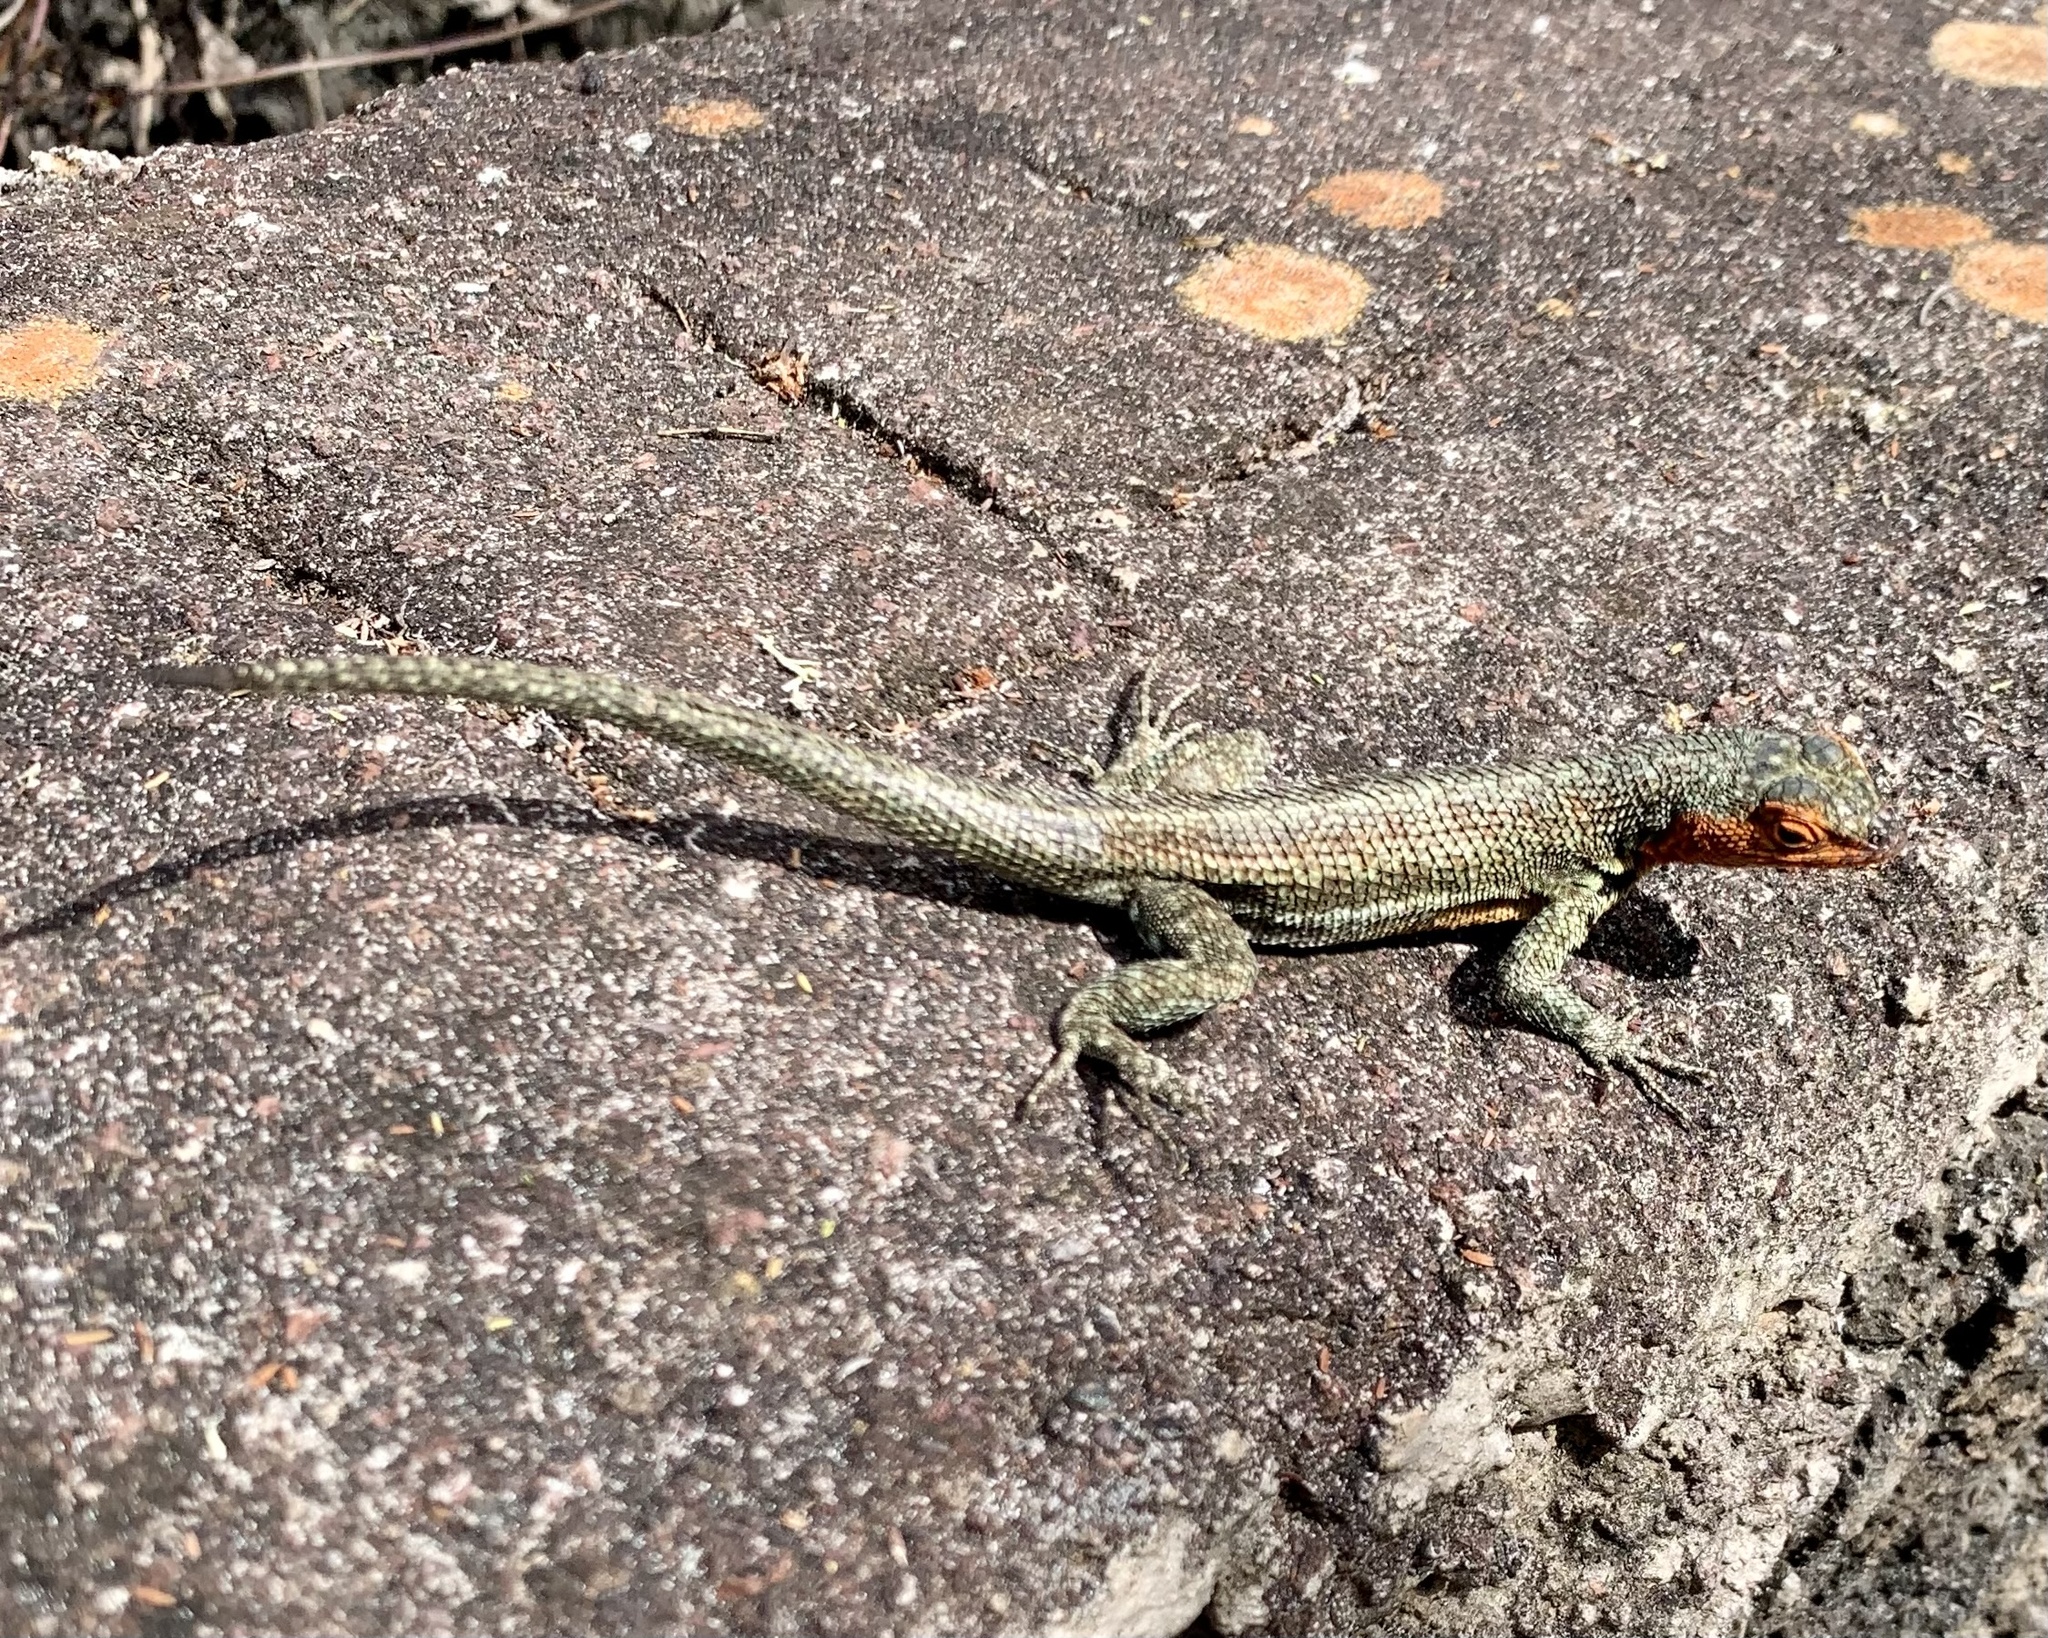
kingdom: Animalia
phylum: Chordata
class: Squamata
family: Tropiduridae
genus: Microlophus
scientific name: Microlophus indefatigabilis
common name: Galapagos lava lizard
